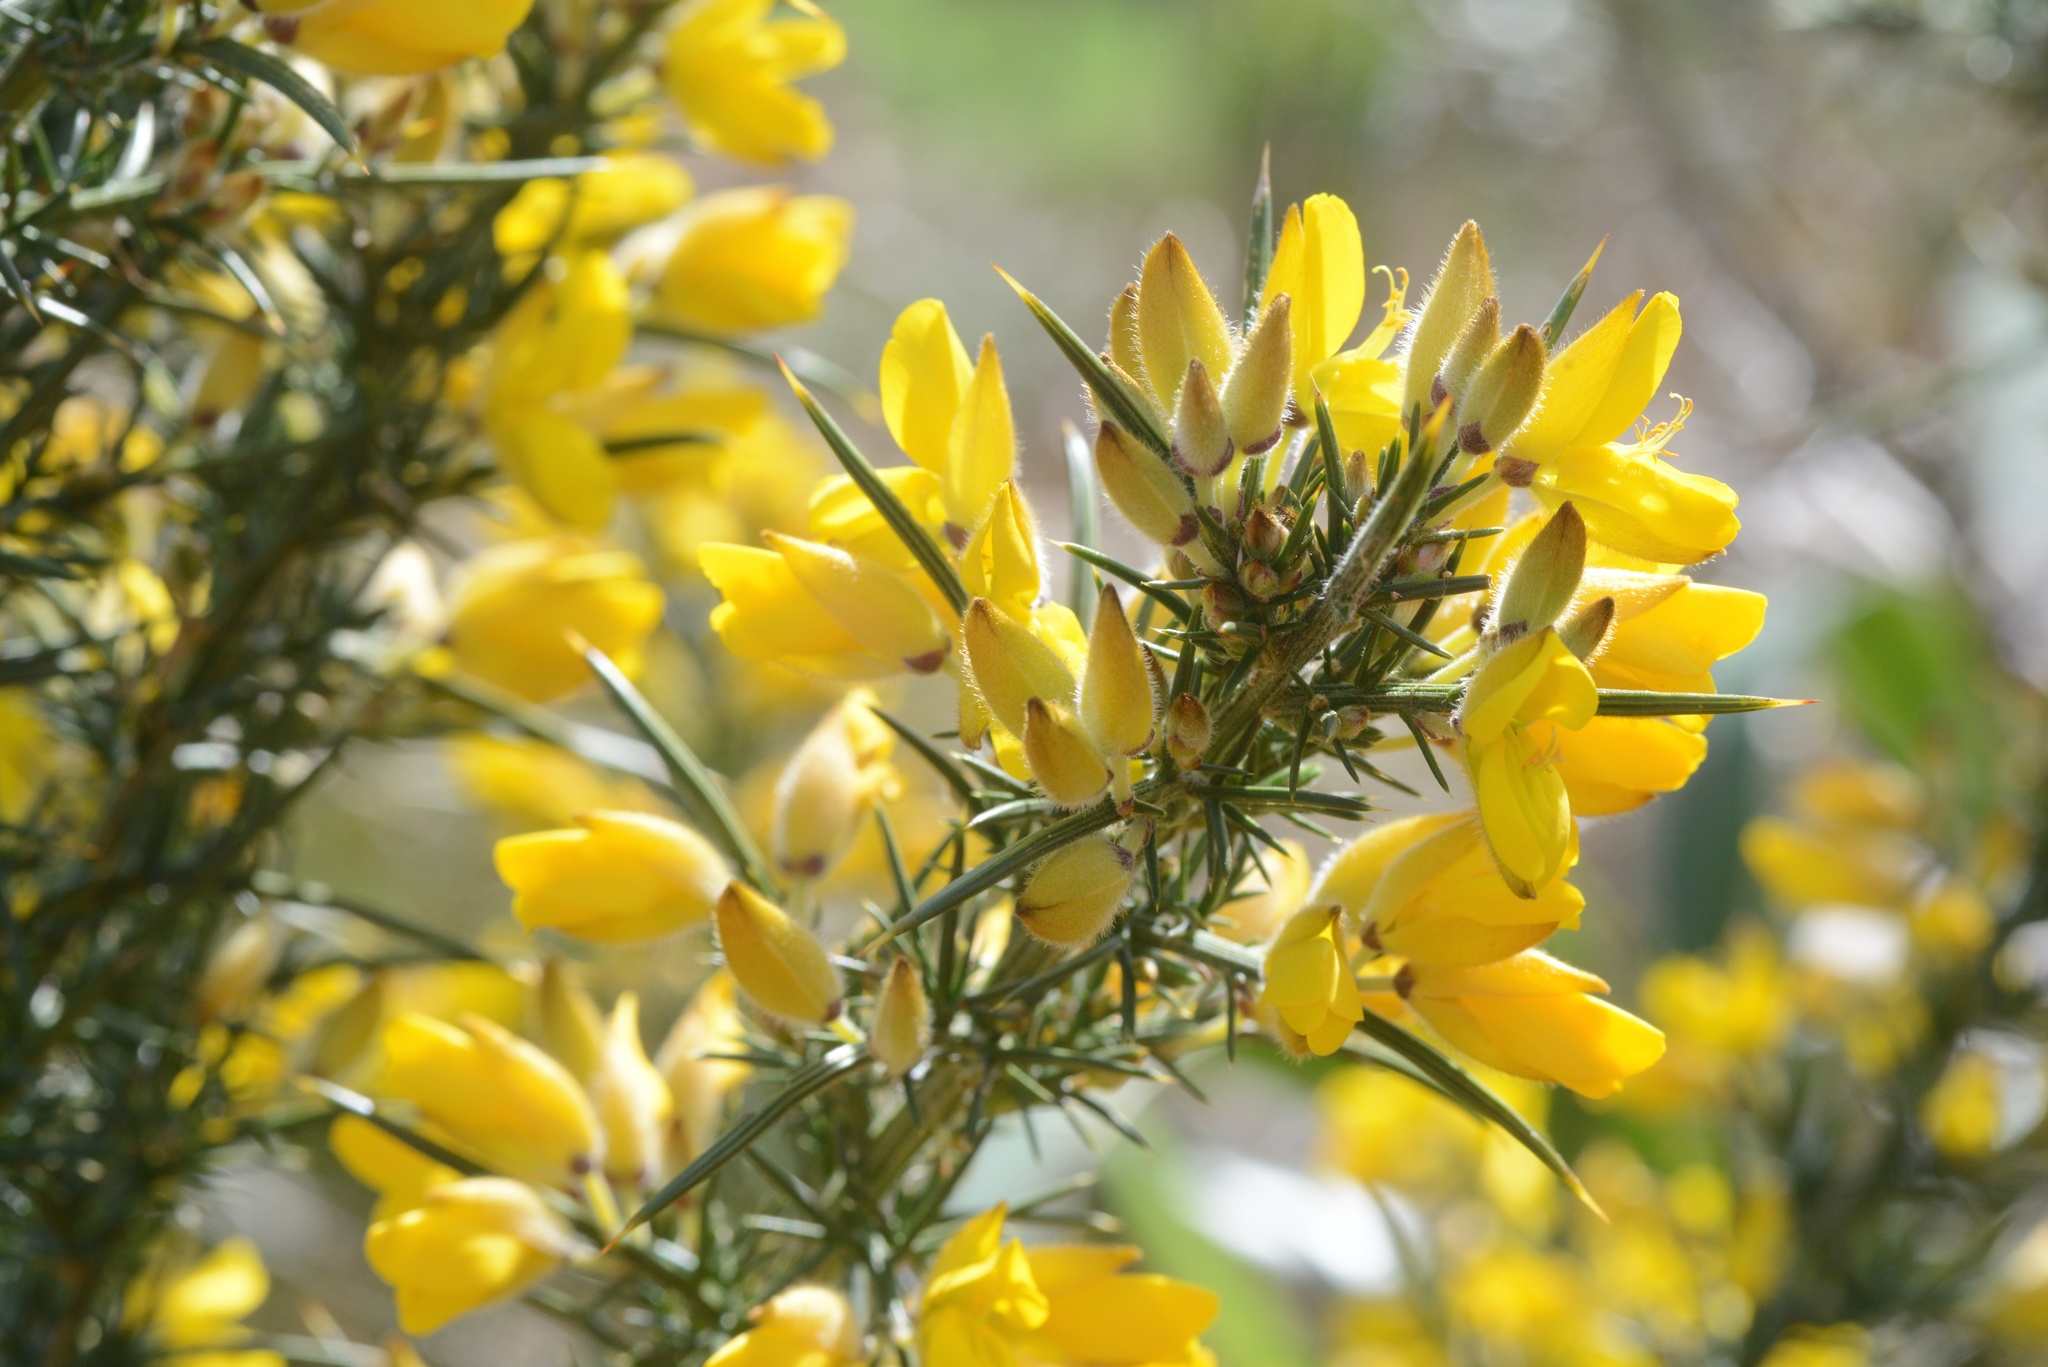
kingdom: Plantae
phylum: Tracheophyta
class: Magnoliopsida
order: Fabales
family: Fabaceae
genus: Ulex
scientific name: Ulex europaeus
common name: Common gorse
